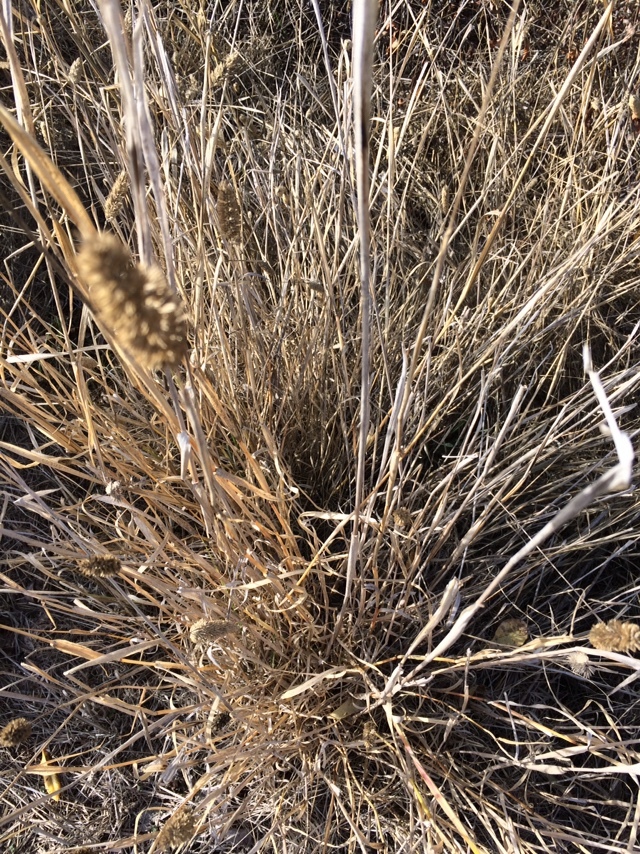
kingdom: Plantae
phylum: Tracheophyta
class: Liliopsida
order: Poales
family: Poaceae
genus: Phalaris
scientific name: Phalaris aquatica
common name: Bulbous canary-grass
